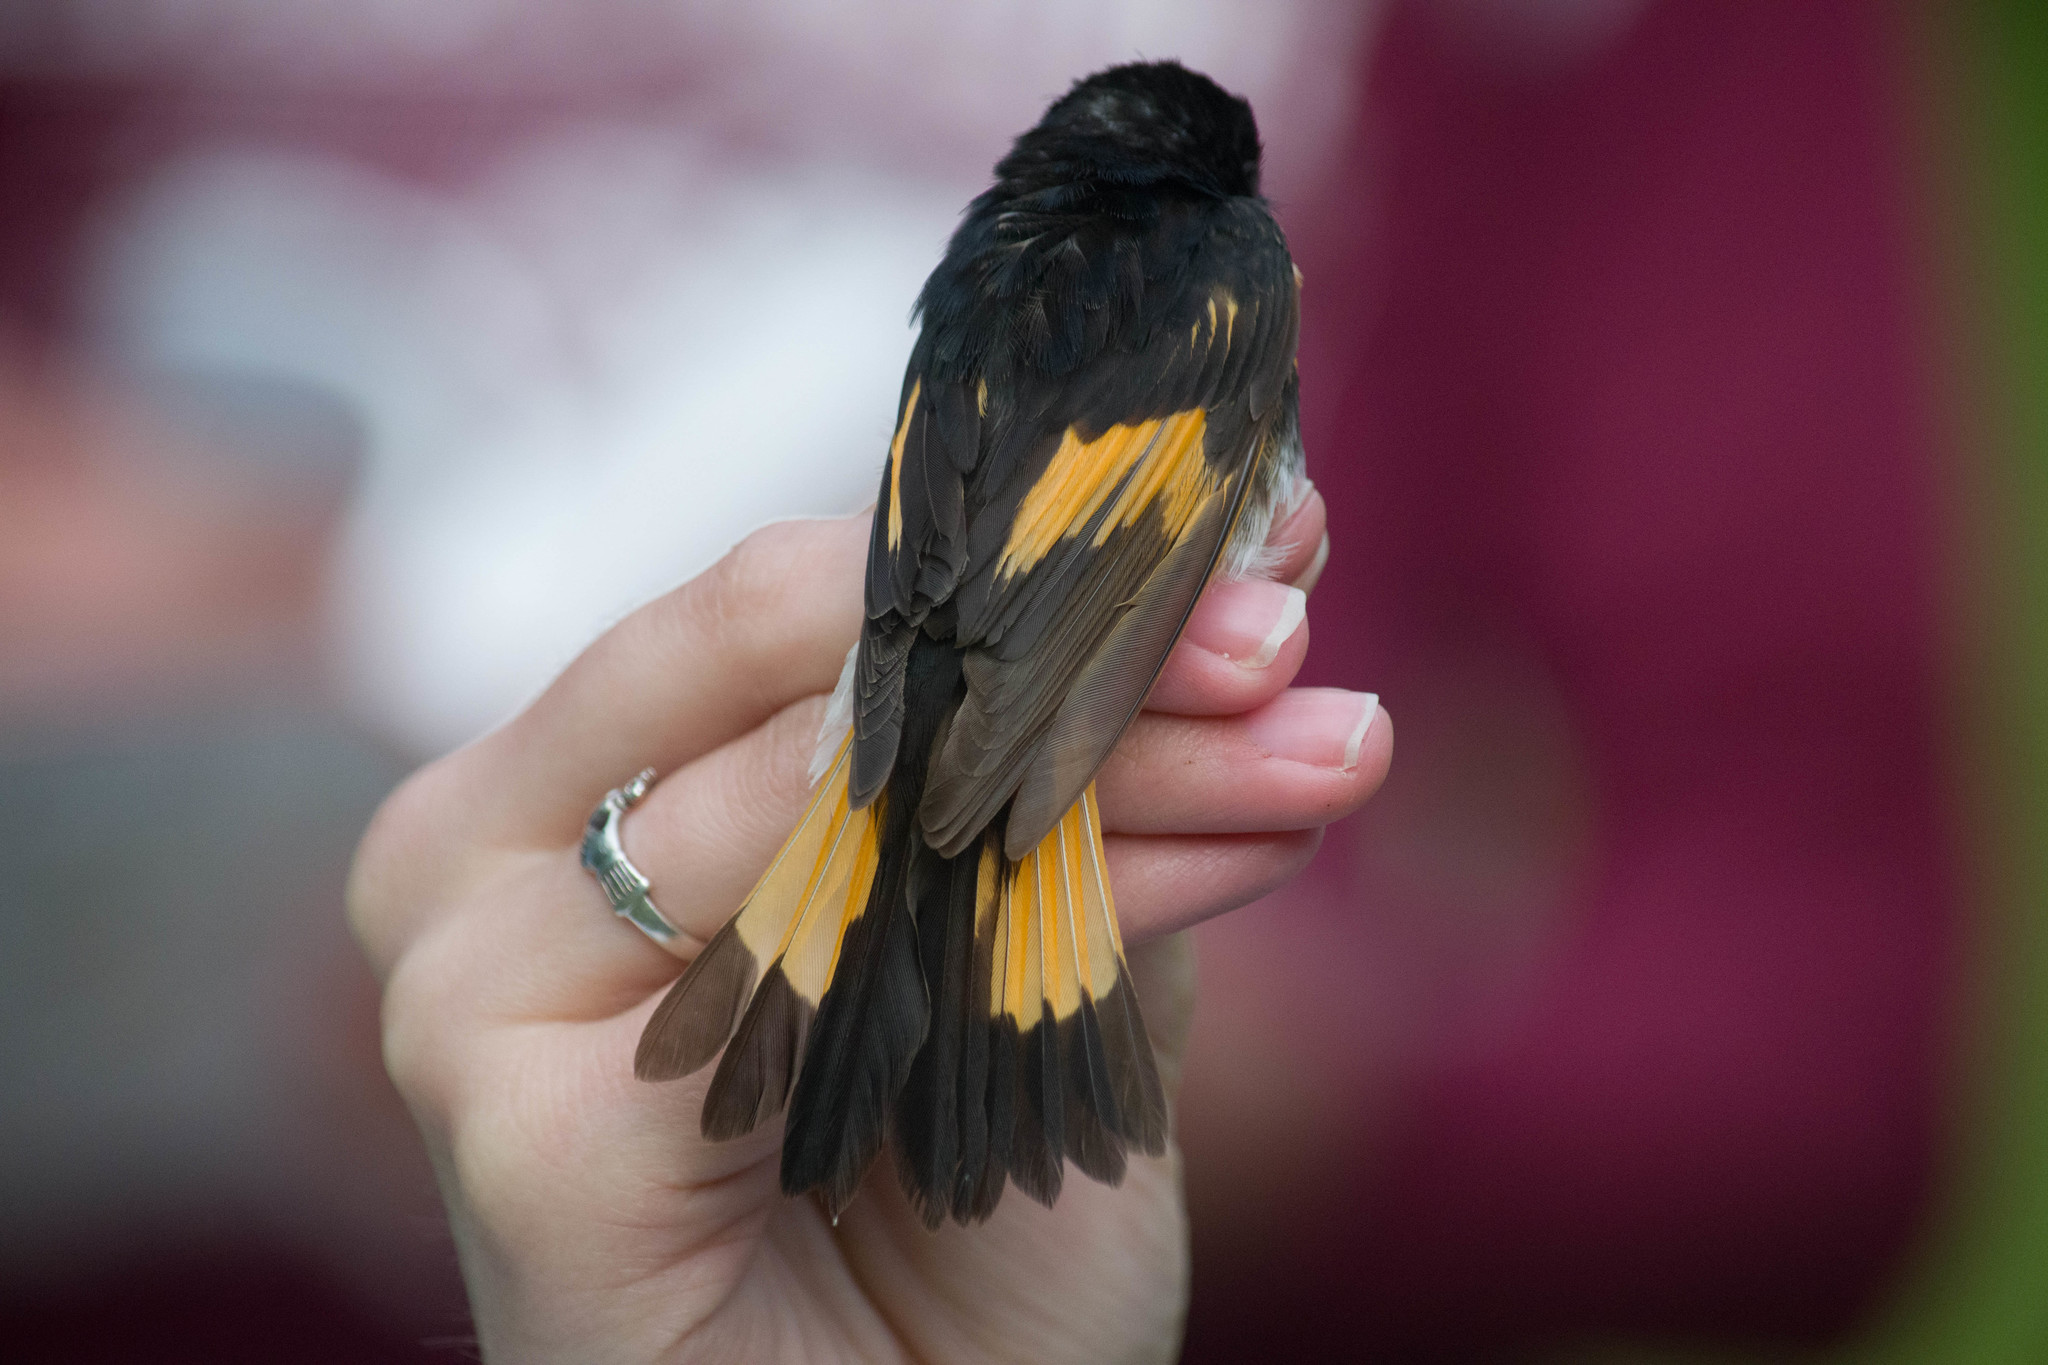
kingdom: Animalia
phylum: Chordata
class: Aves
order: Passeriformes
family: Parulidae
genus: Setophaga
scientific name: Setophaga ruticilla
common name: American redstart
